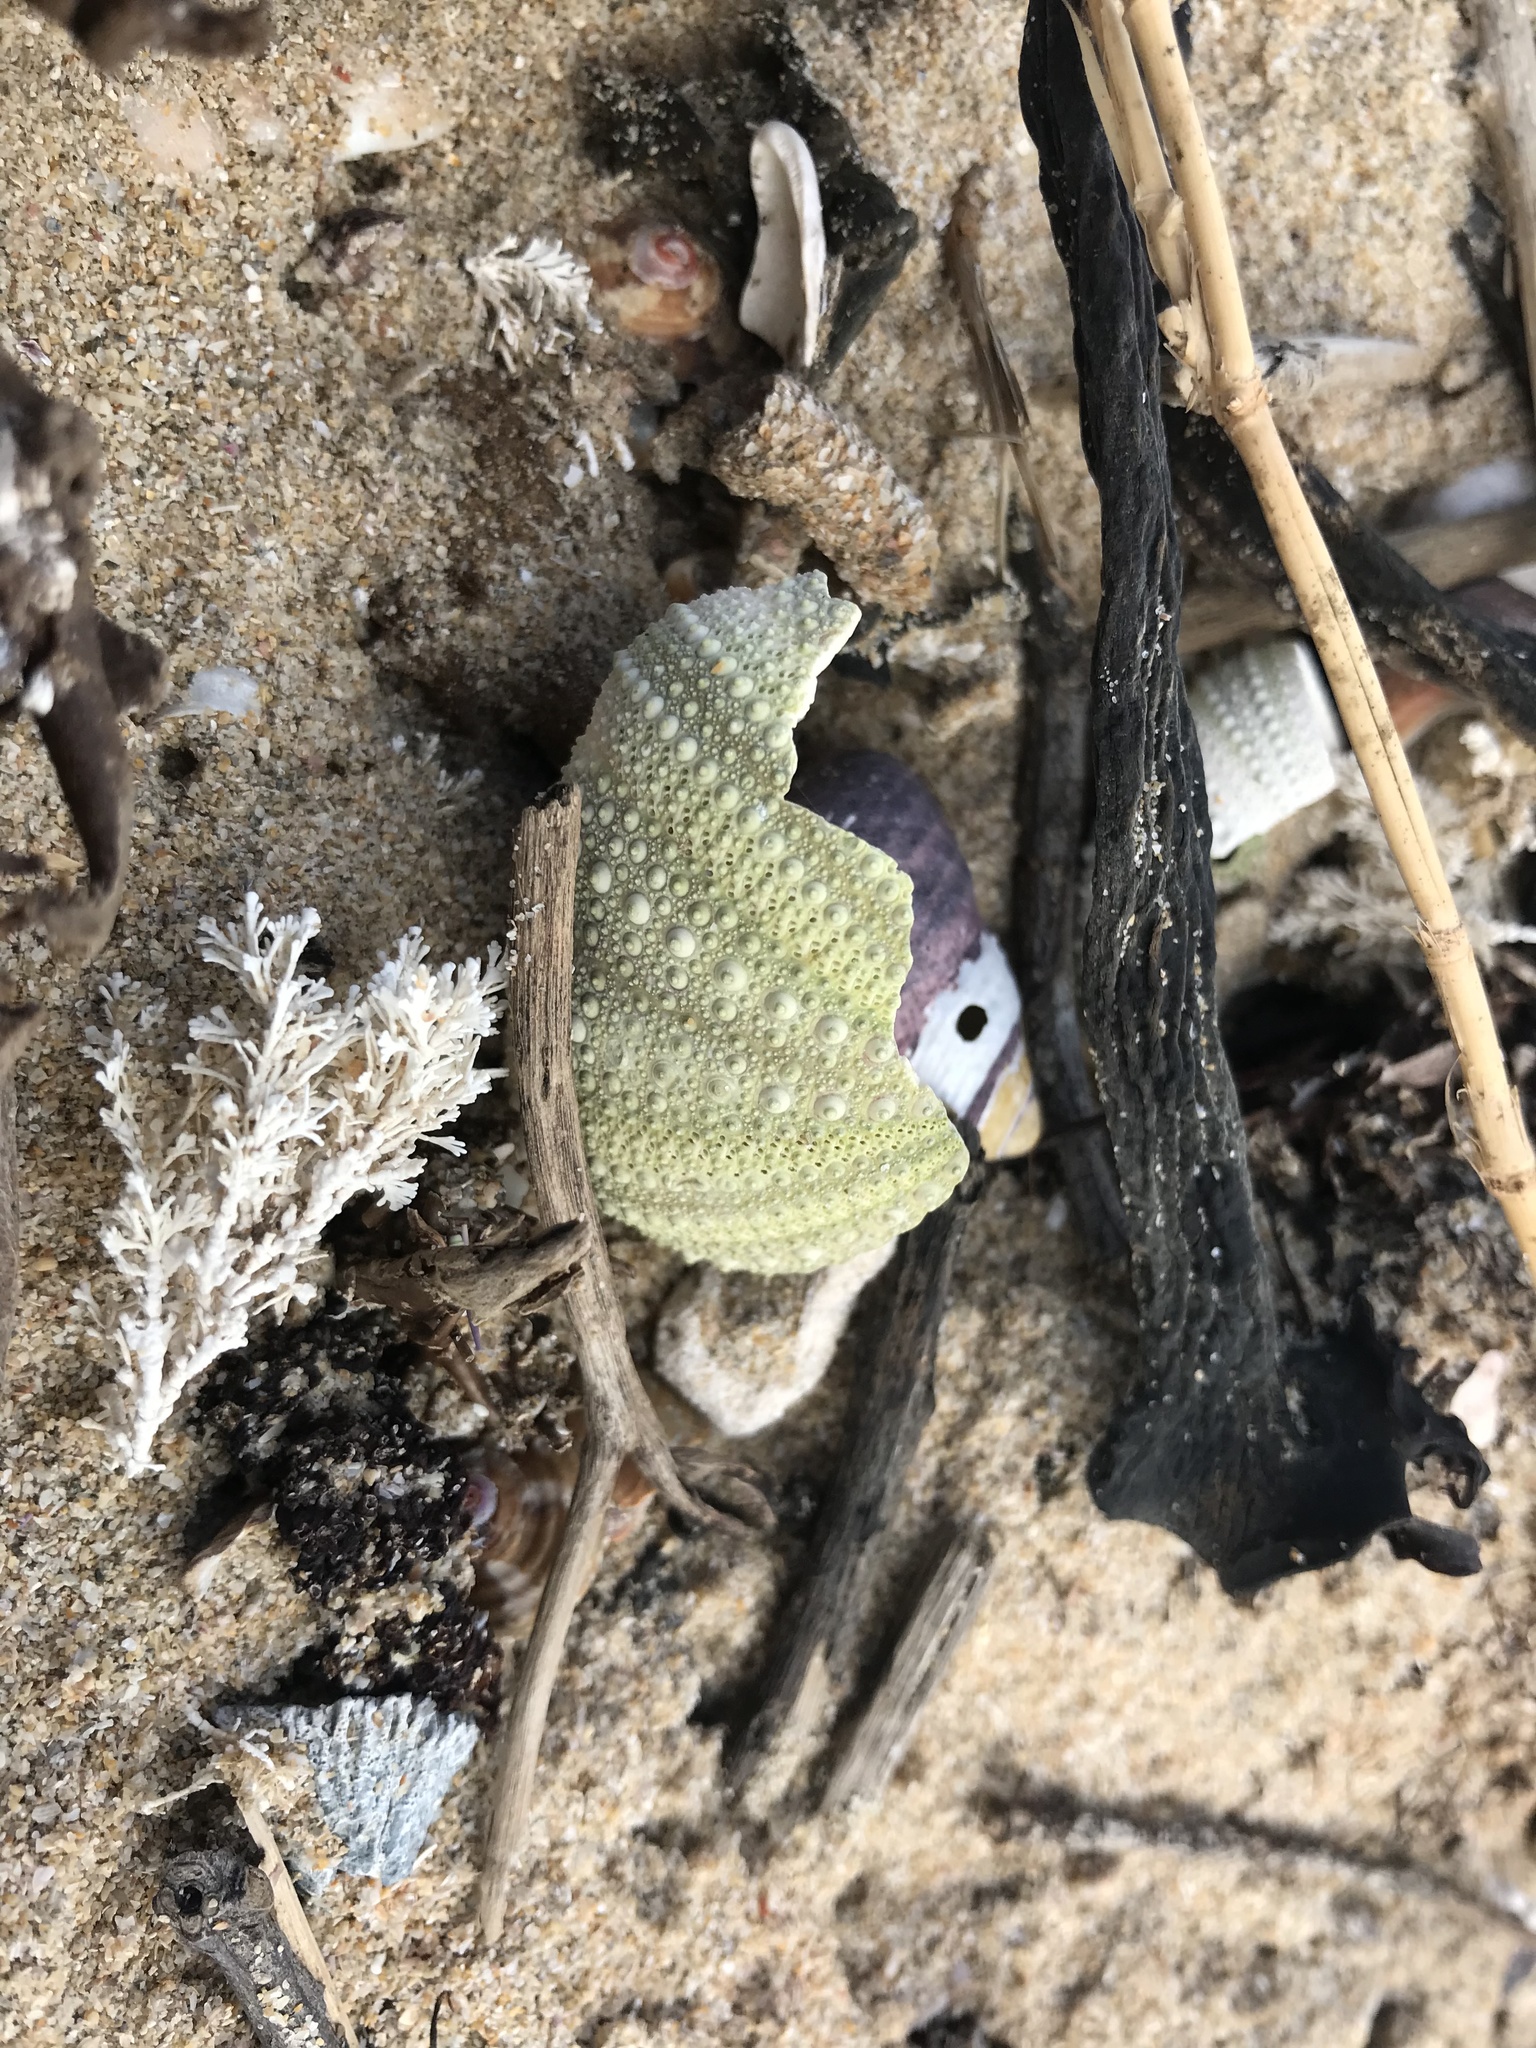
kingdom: Animalia
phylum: Echinodermata
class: Echinoidea
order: Camarodonta
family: Parechinidae
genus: Parechinus
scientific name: Parechinus angulosus
